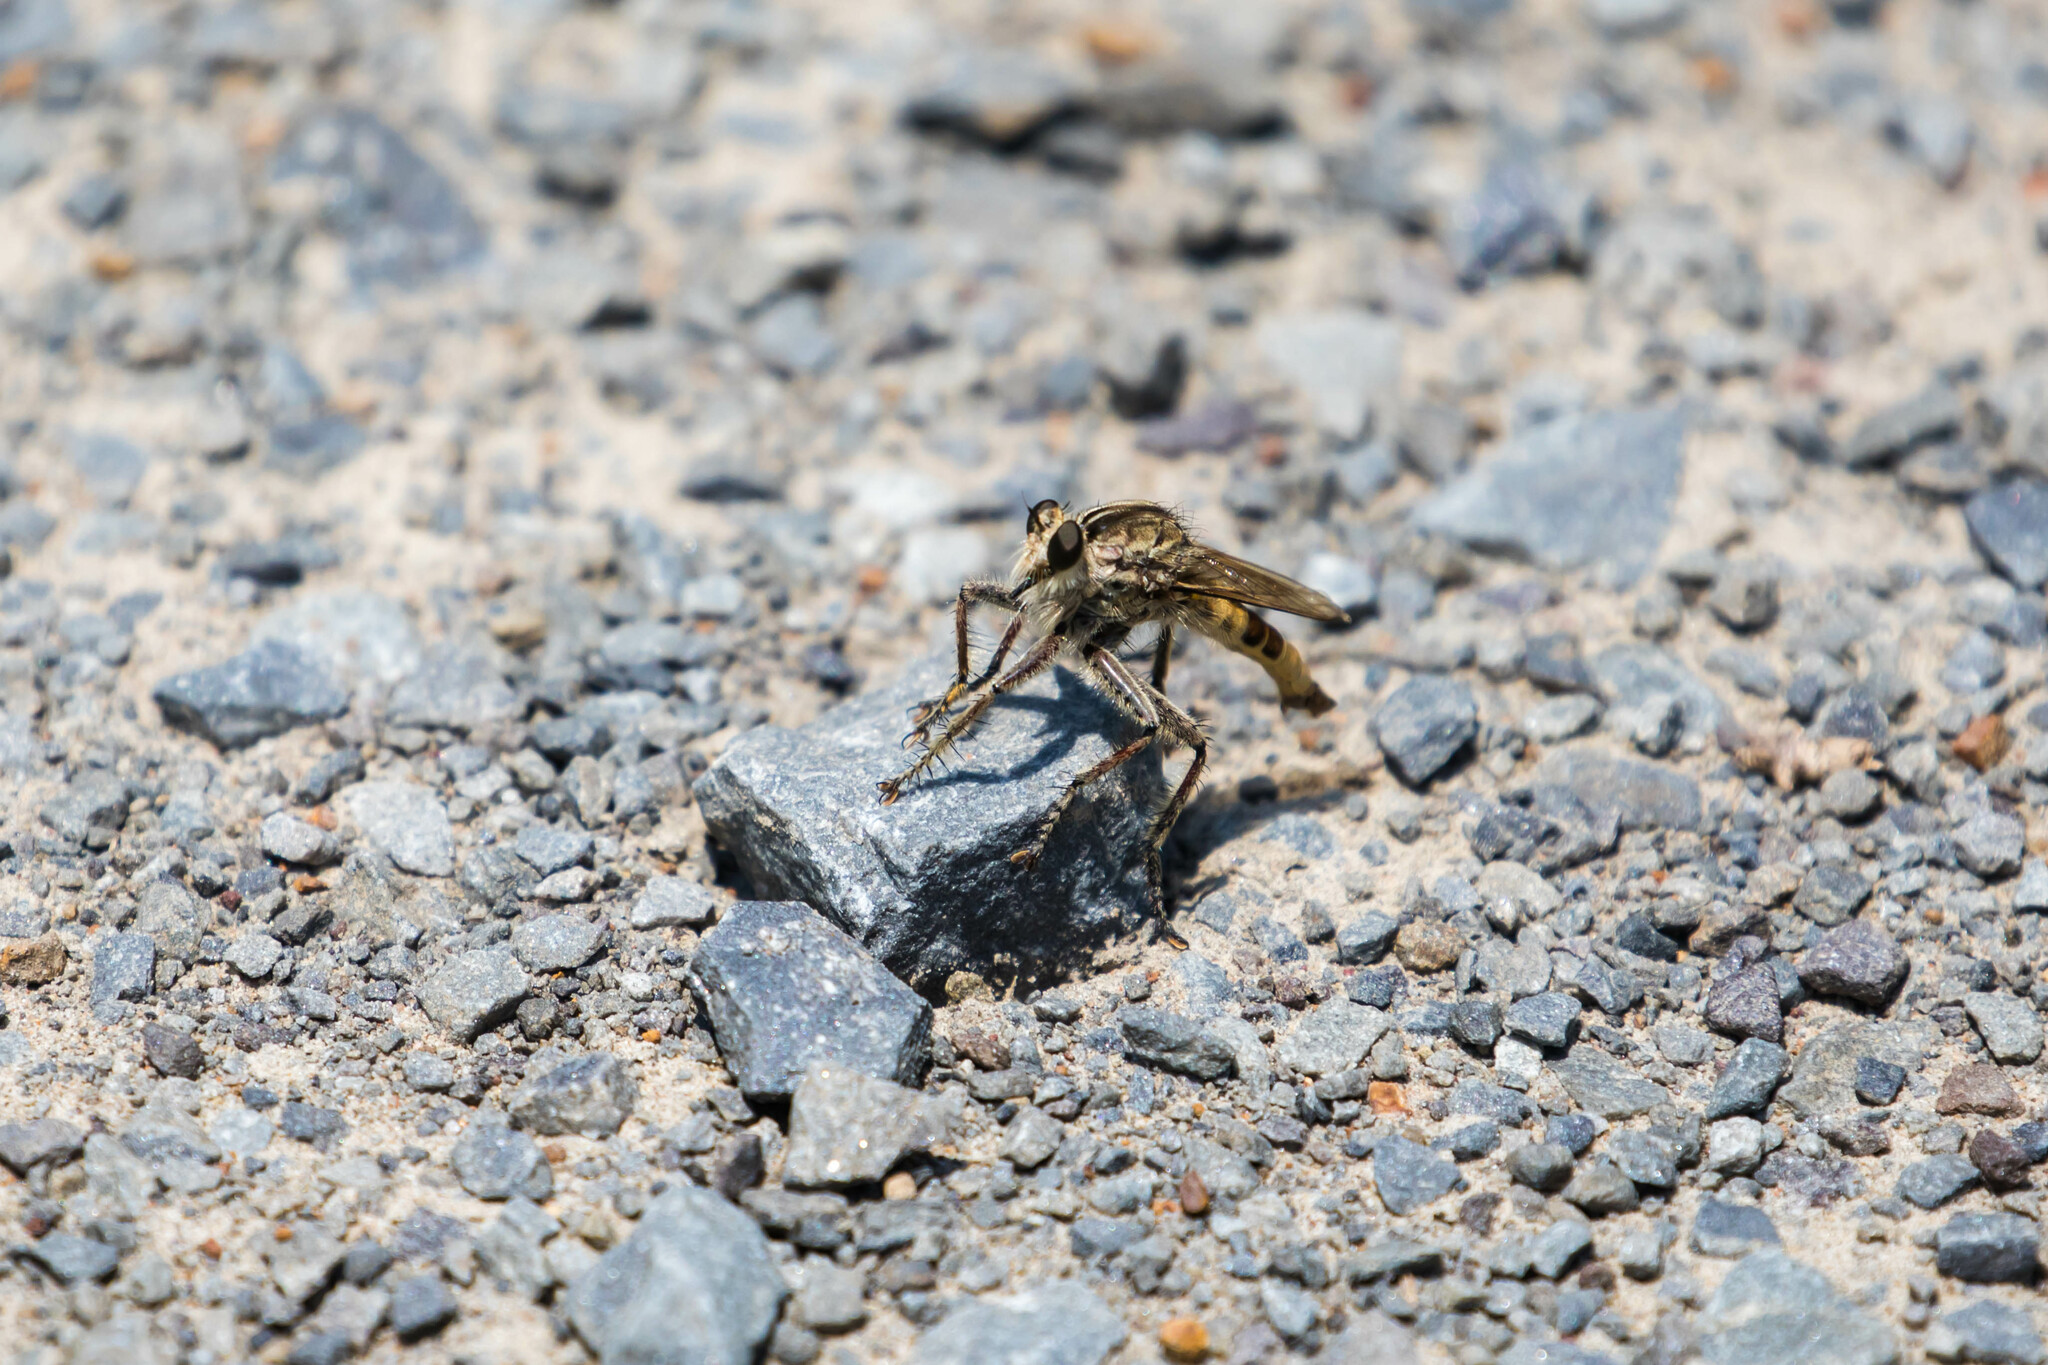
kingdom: Animalia
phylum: Arthropoda
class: Insecta
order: Diptera
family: Asilidae
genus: Triorla
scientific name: Triorla interrupta
